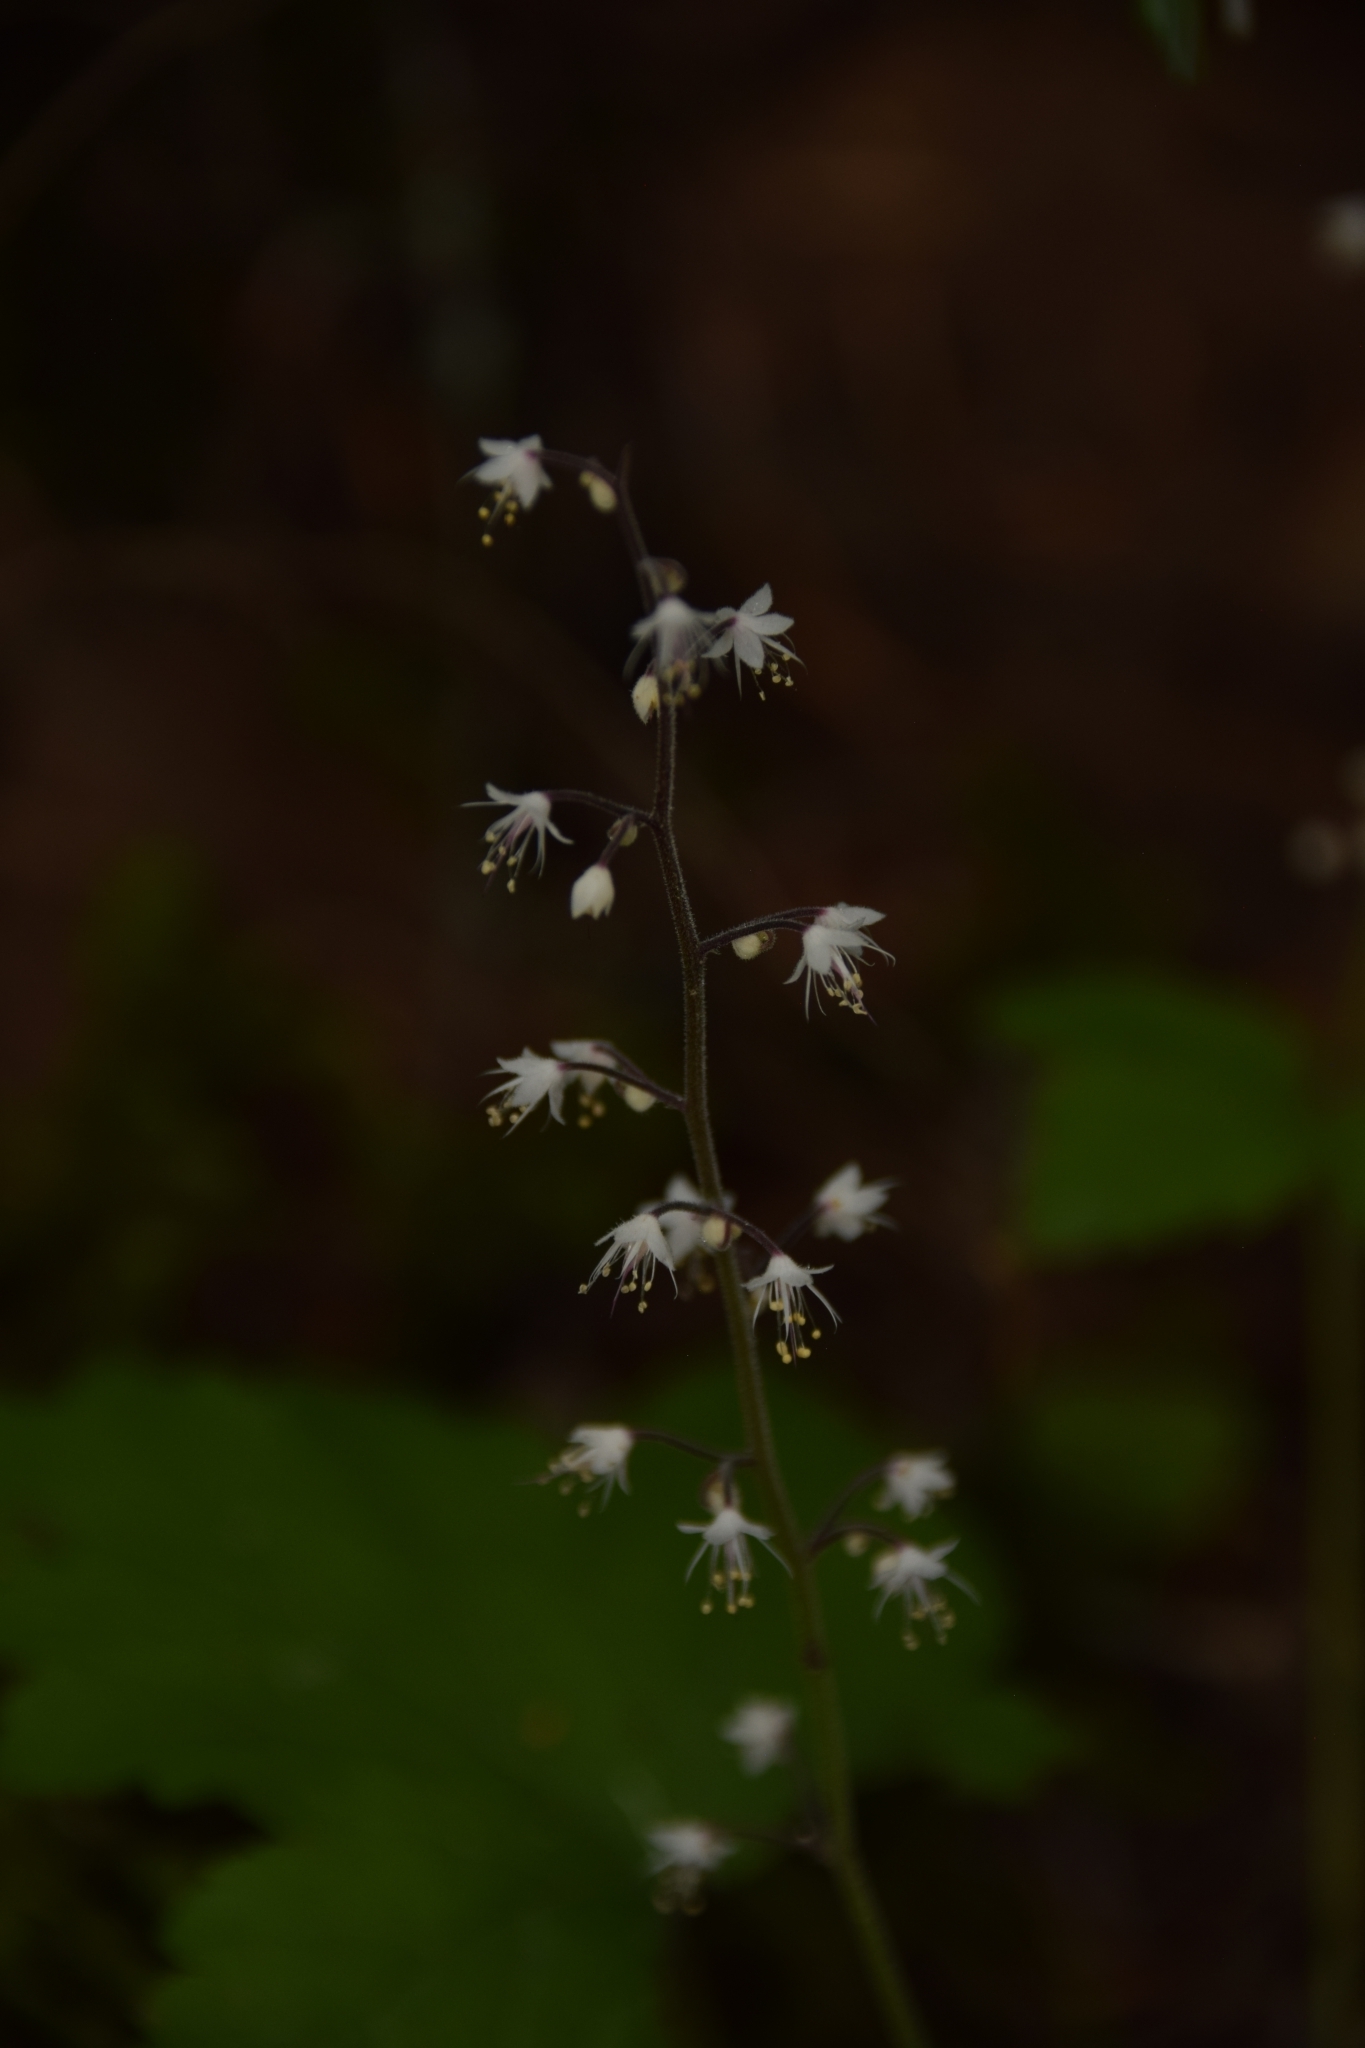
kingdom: Plantae
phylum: Tracheophyta
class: Magnoliopsida
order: Saxifragales
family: Saxifragaceae
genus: Tiarella
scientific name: Tiarella trifoliata
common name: Sugar-scoop
